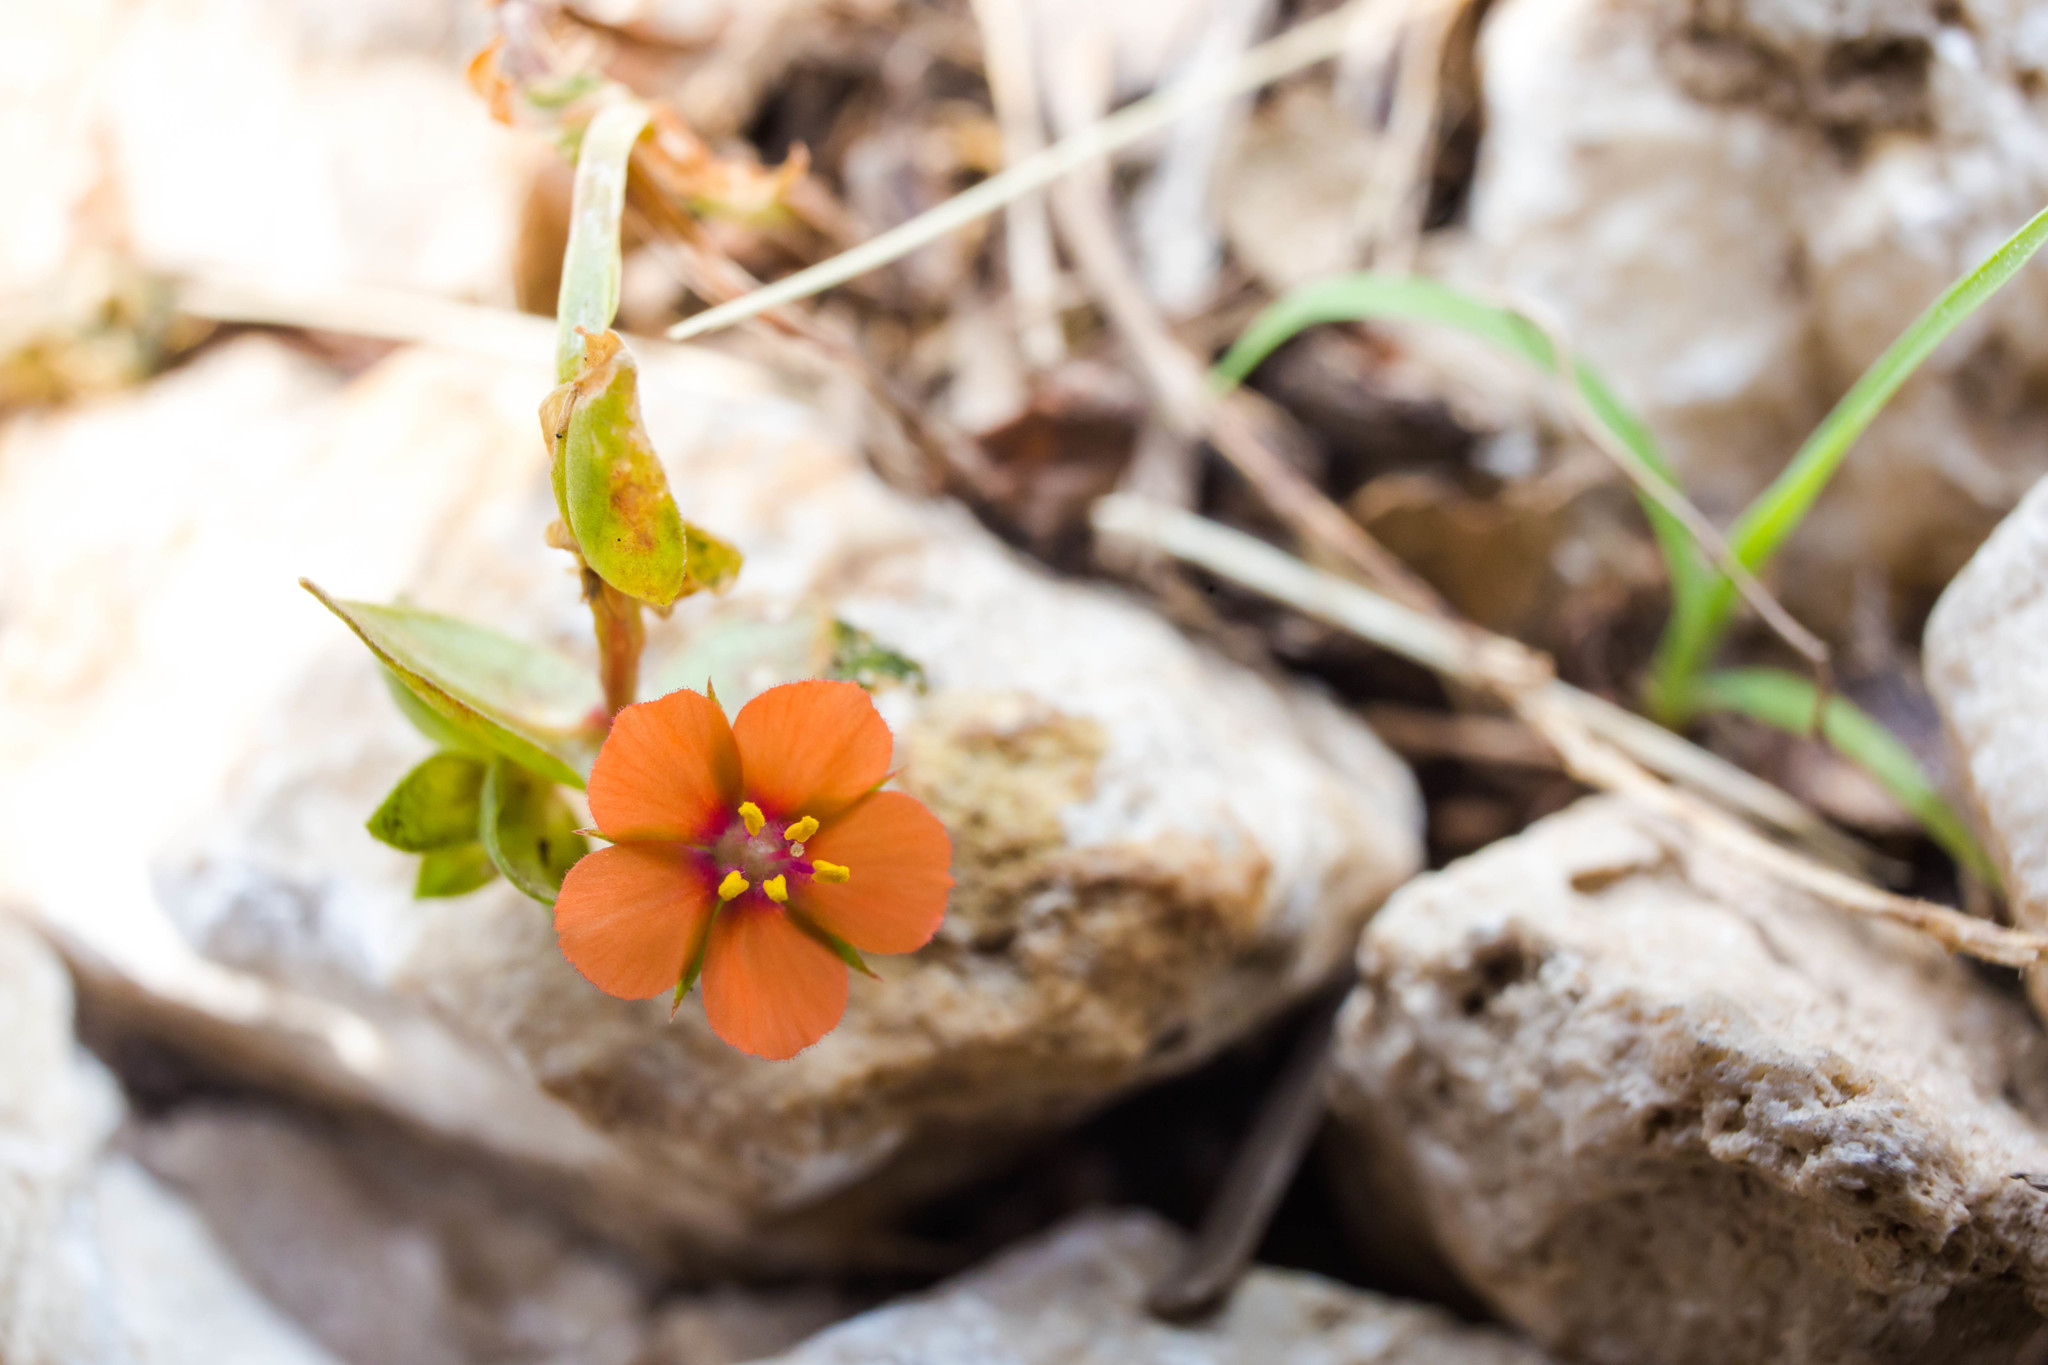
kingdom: Plantae
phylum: Tracheophyta
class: Magnoliopsida
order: Ericales
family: Primulaceae
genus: Lysimachia
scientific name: Lysimachia arvensis
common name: Scarlet pimpernel
